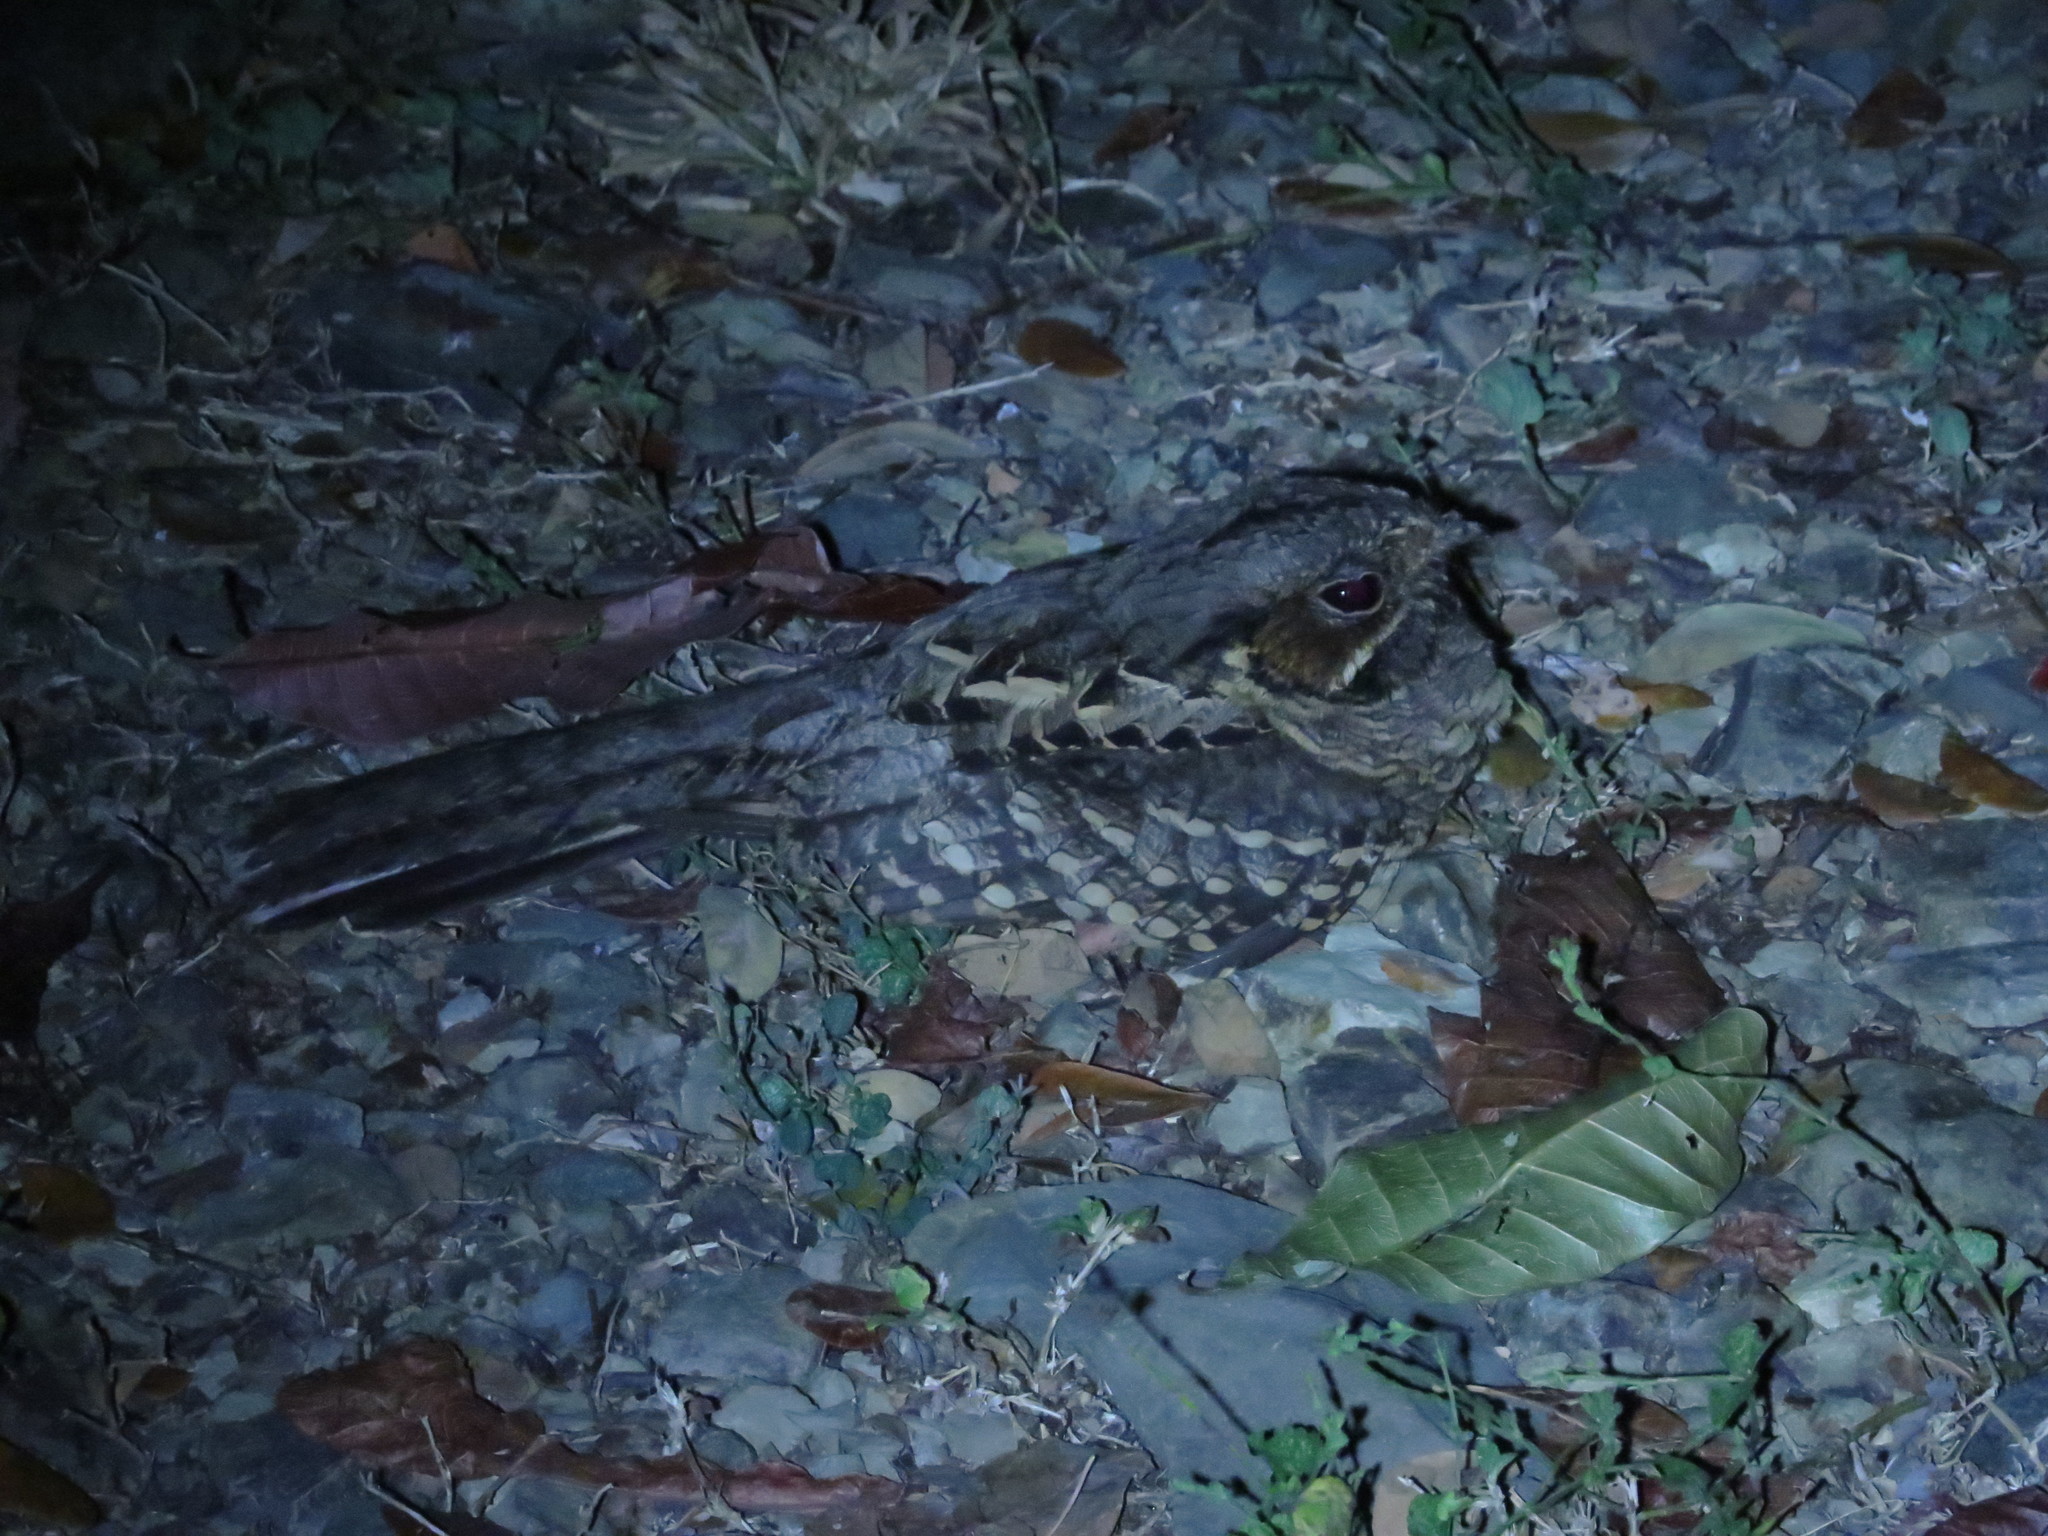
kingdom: Animalia
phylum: Chordata
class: Aves
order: Caprimulgiformes
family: Caprimulgidae
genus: Nyctidromus
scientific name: Nyctidromus albicollis
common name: Pauraque
